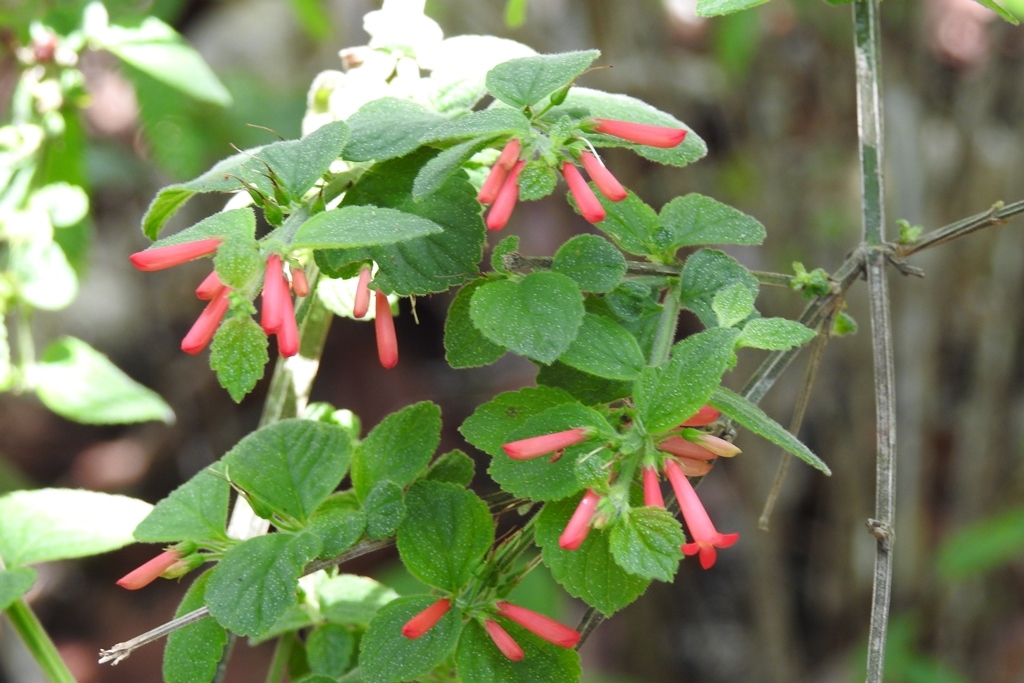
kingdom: Plantae
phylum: Tracheophyta
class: Magnoliopsida
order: Lamiales
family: Plantaginaceae
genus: Russelia
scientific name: Russelia sarmentosa
